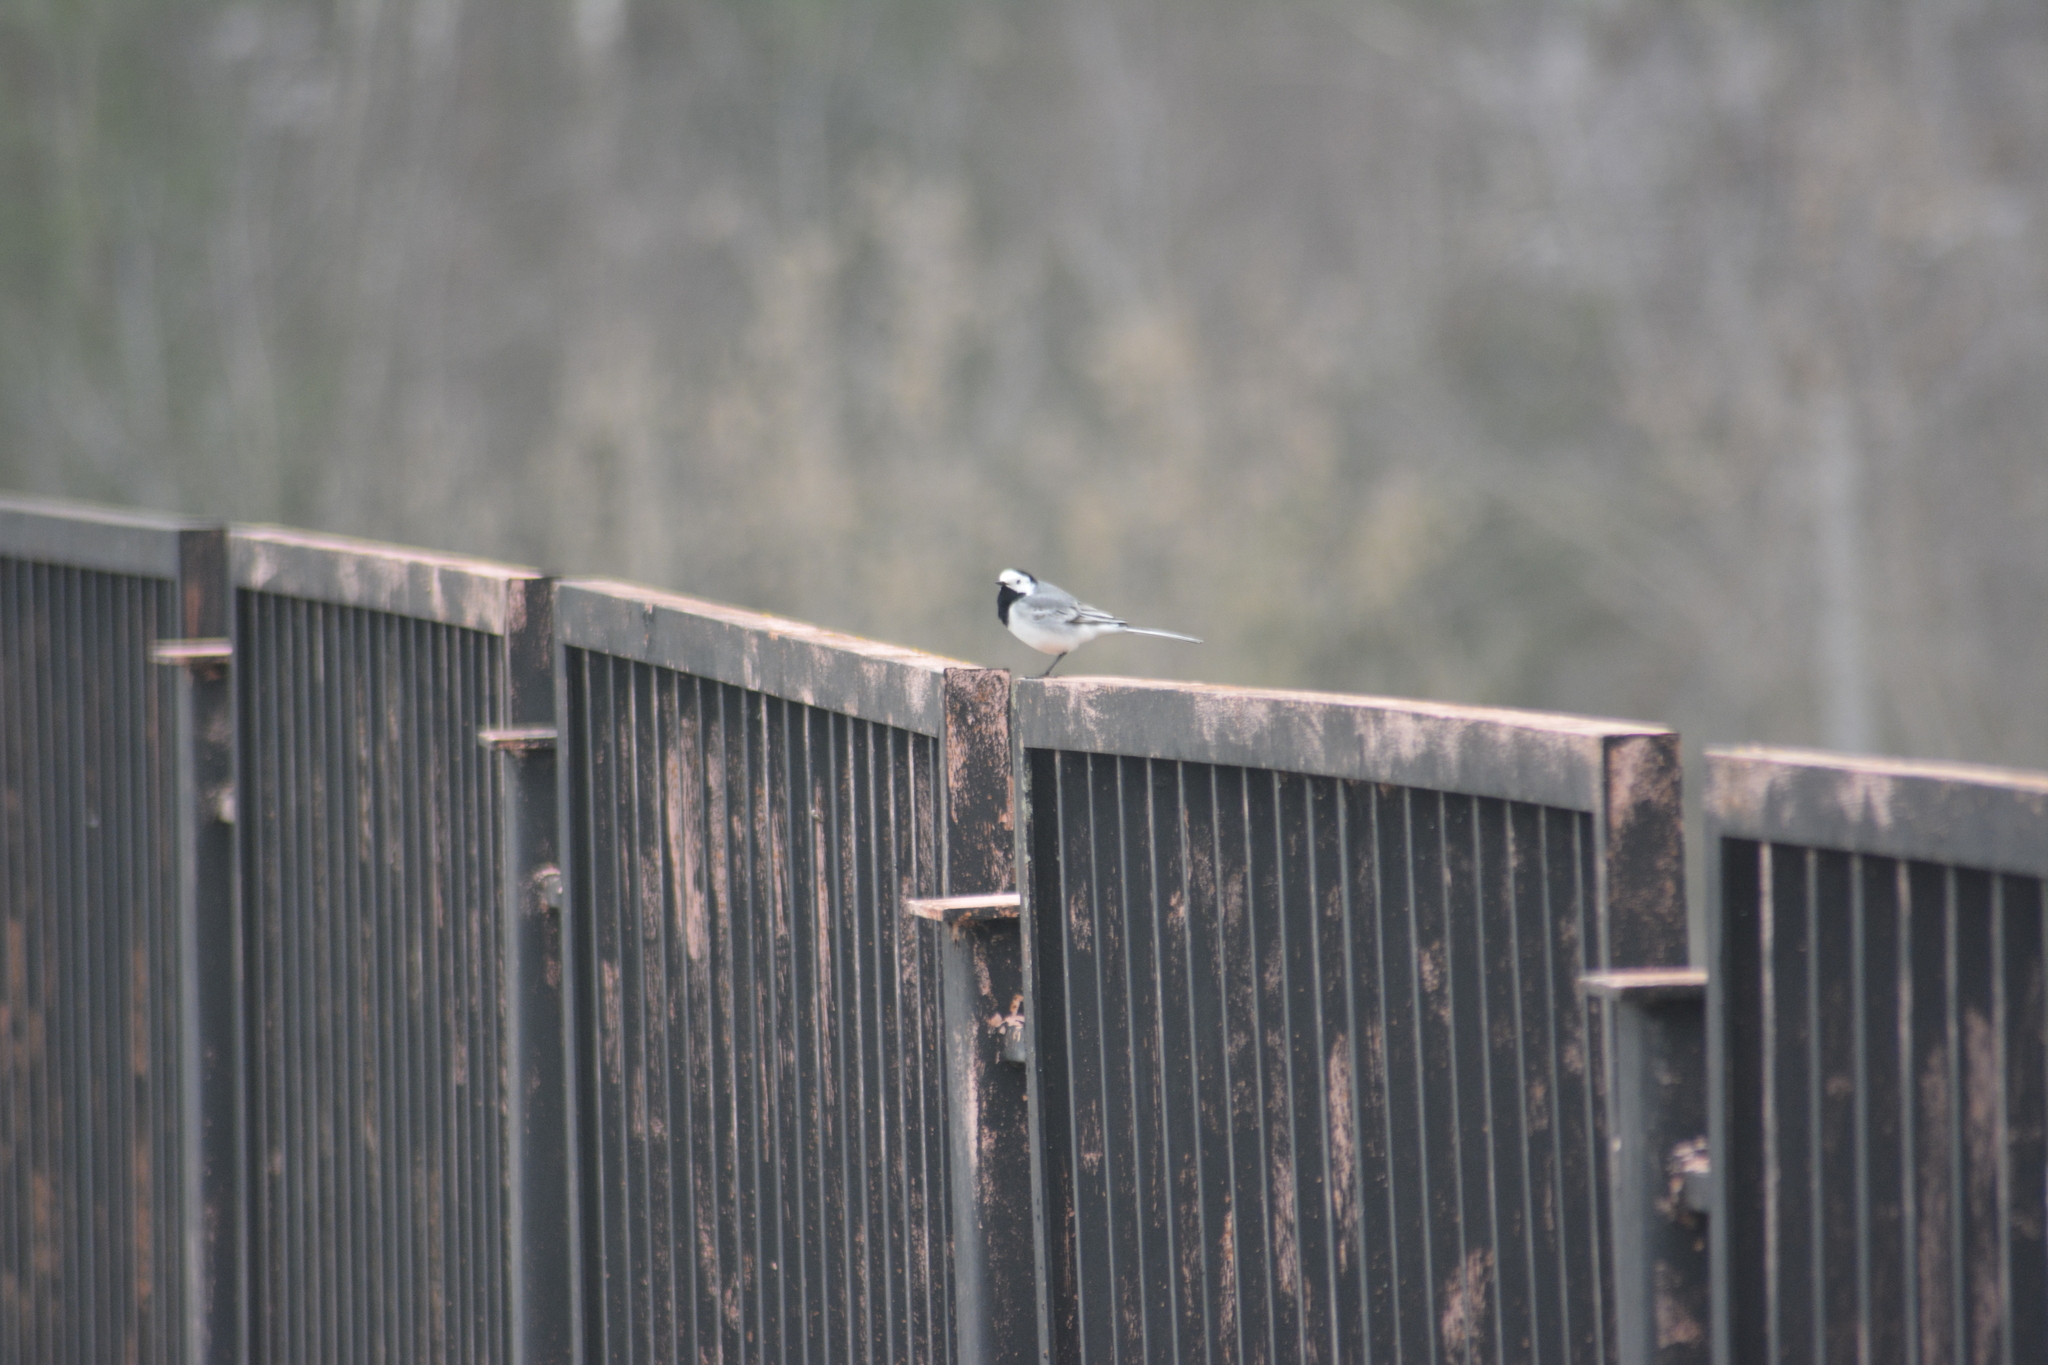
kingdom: Animalia
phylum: Chordata
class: Aves
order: Passeriformes
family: Motacillidae
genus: Motacilla
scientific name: Motacilla alba
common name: White wagtail
